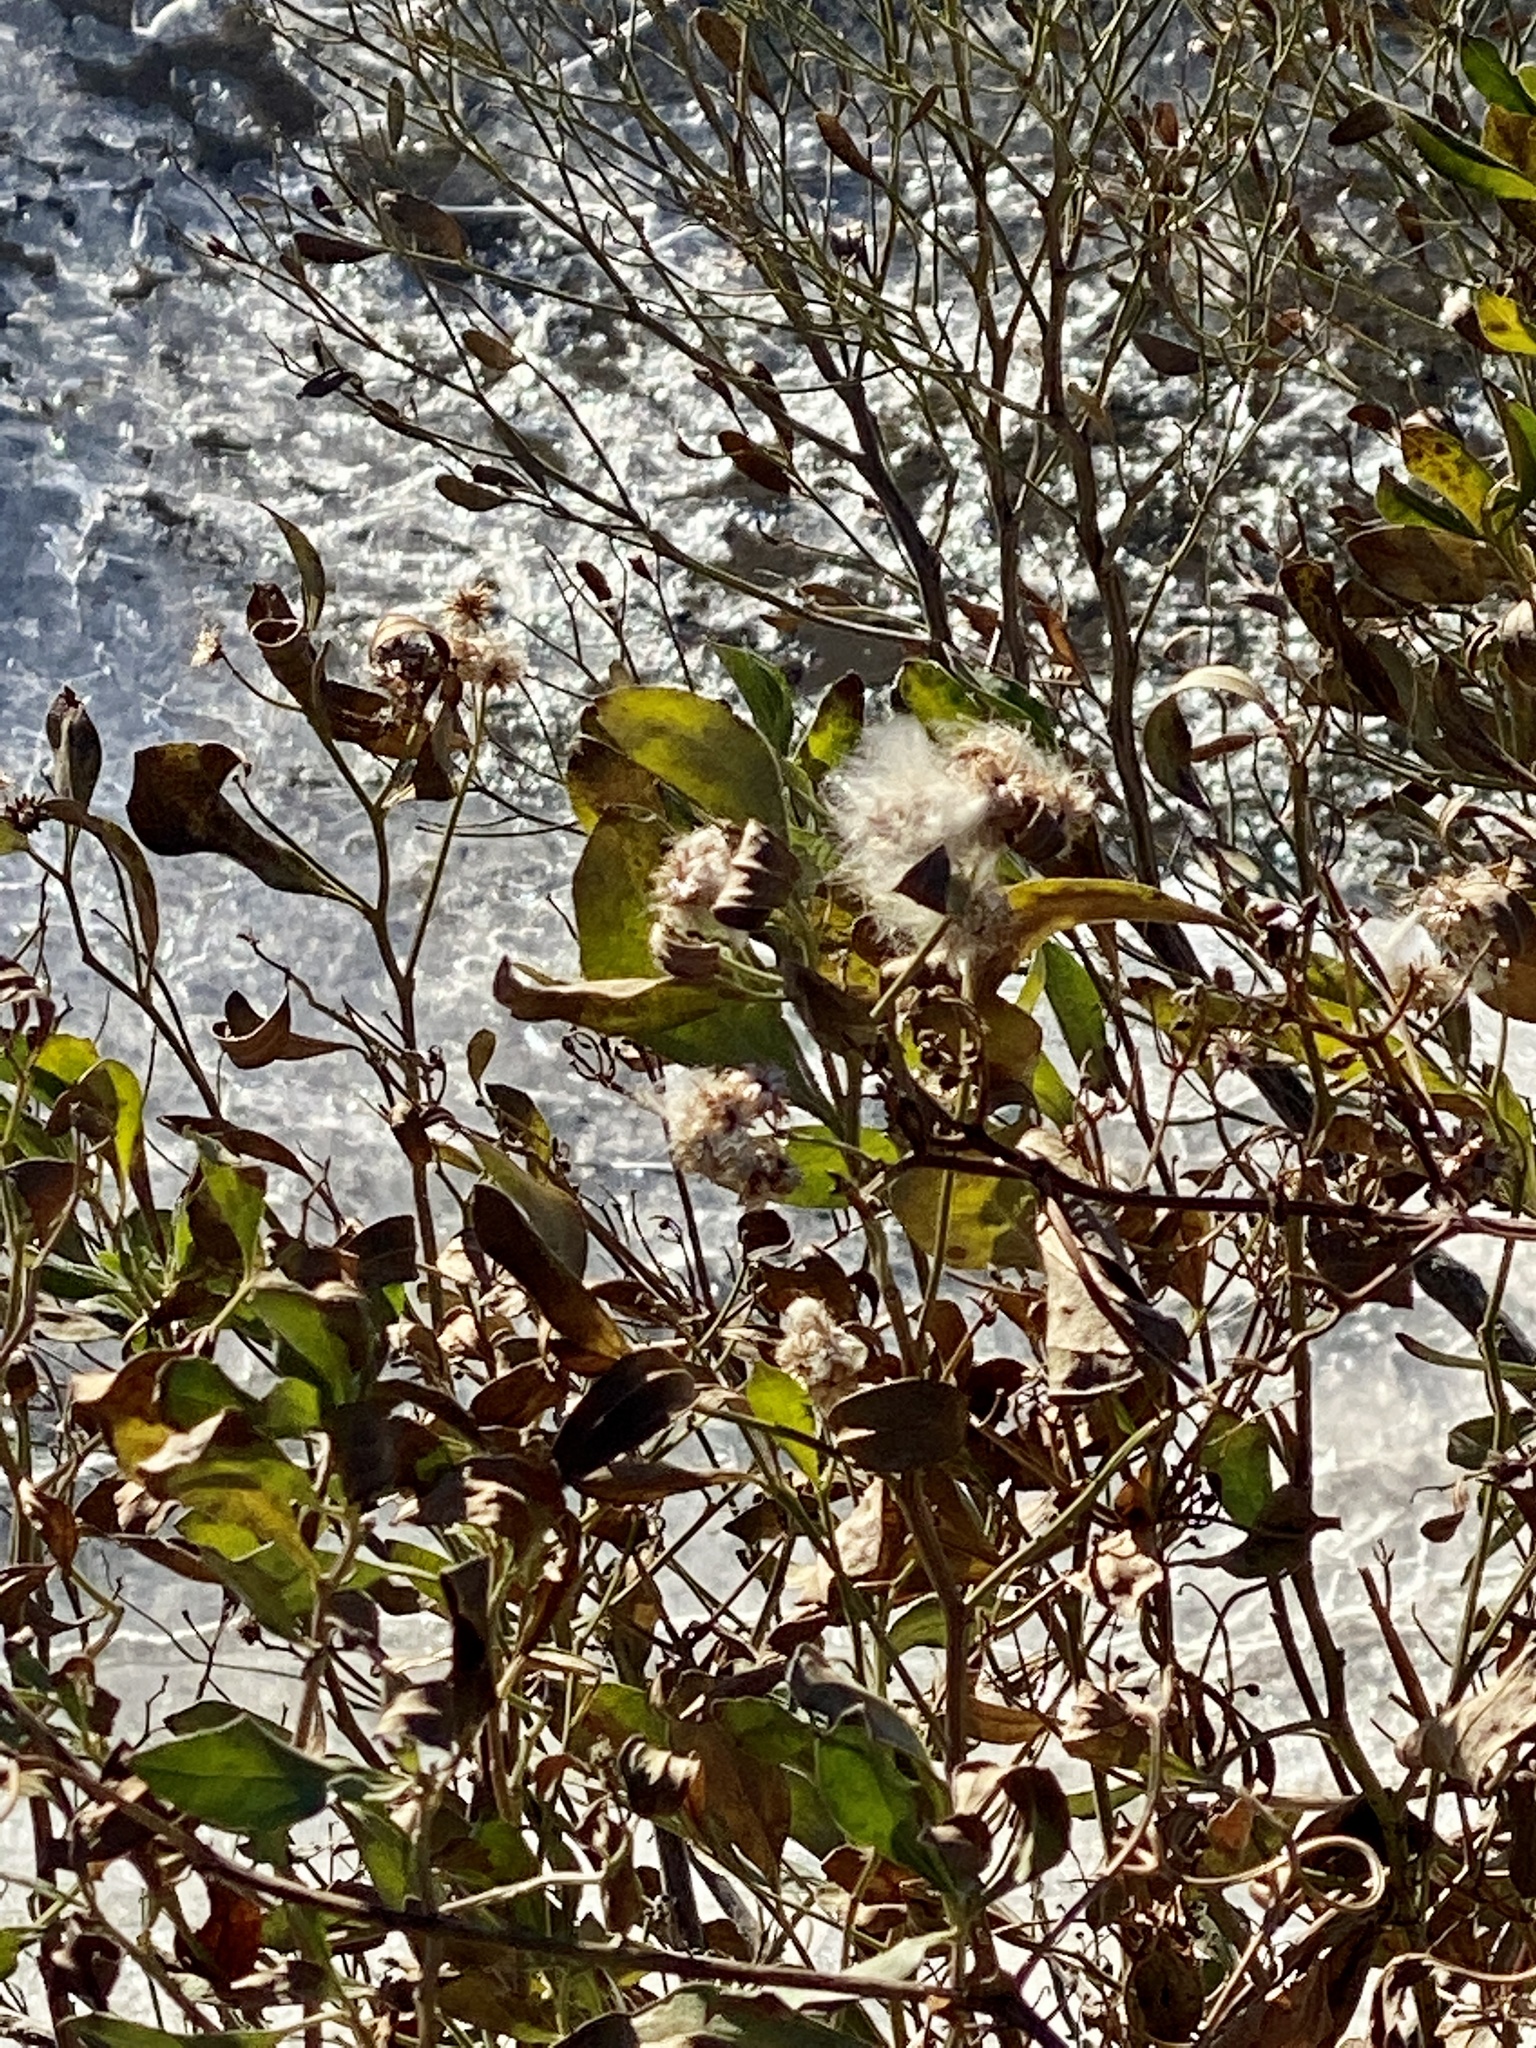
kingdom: Plantae
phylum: Tracheophyta
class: Magnoliopsida
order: Asterales
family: Asteraceae
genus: Baccharis
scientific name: Baccharis halimifolia
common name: Eastern baccharis
